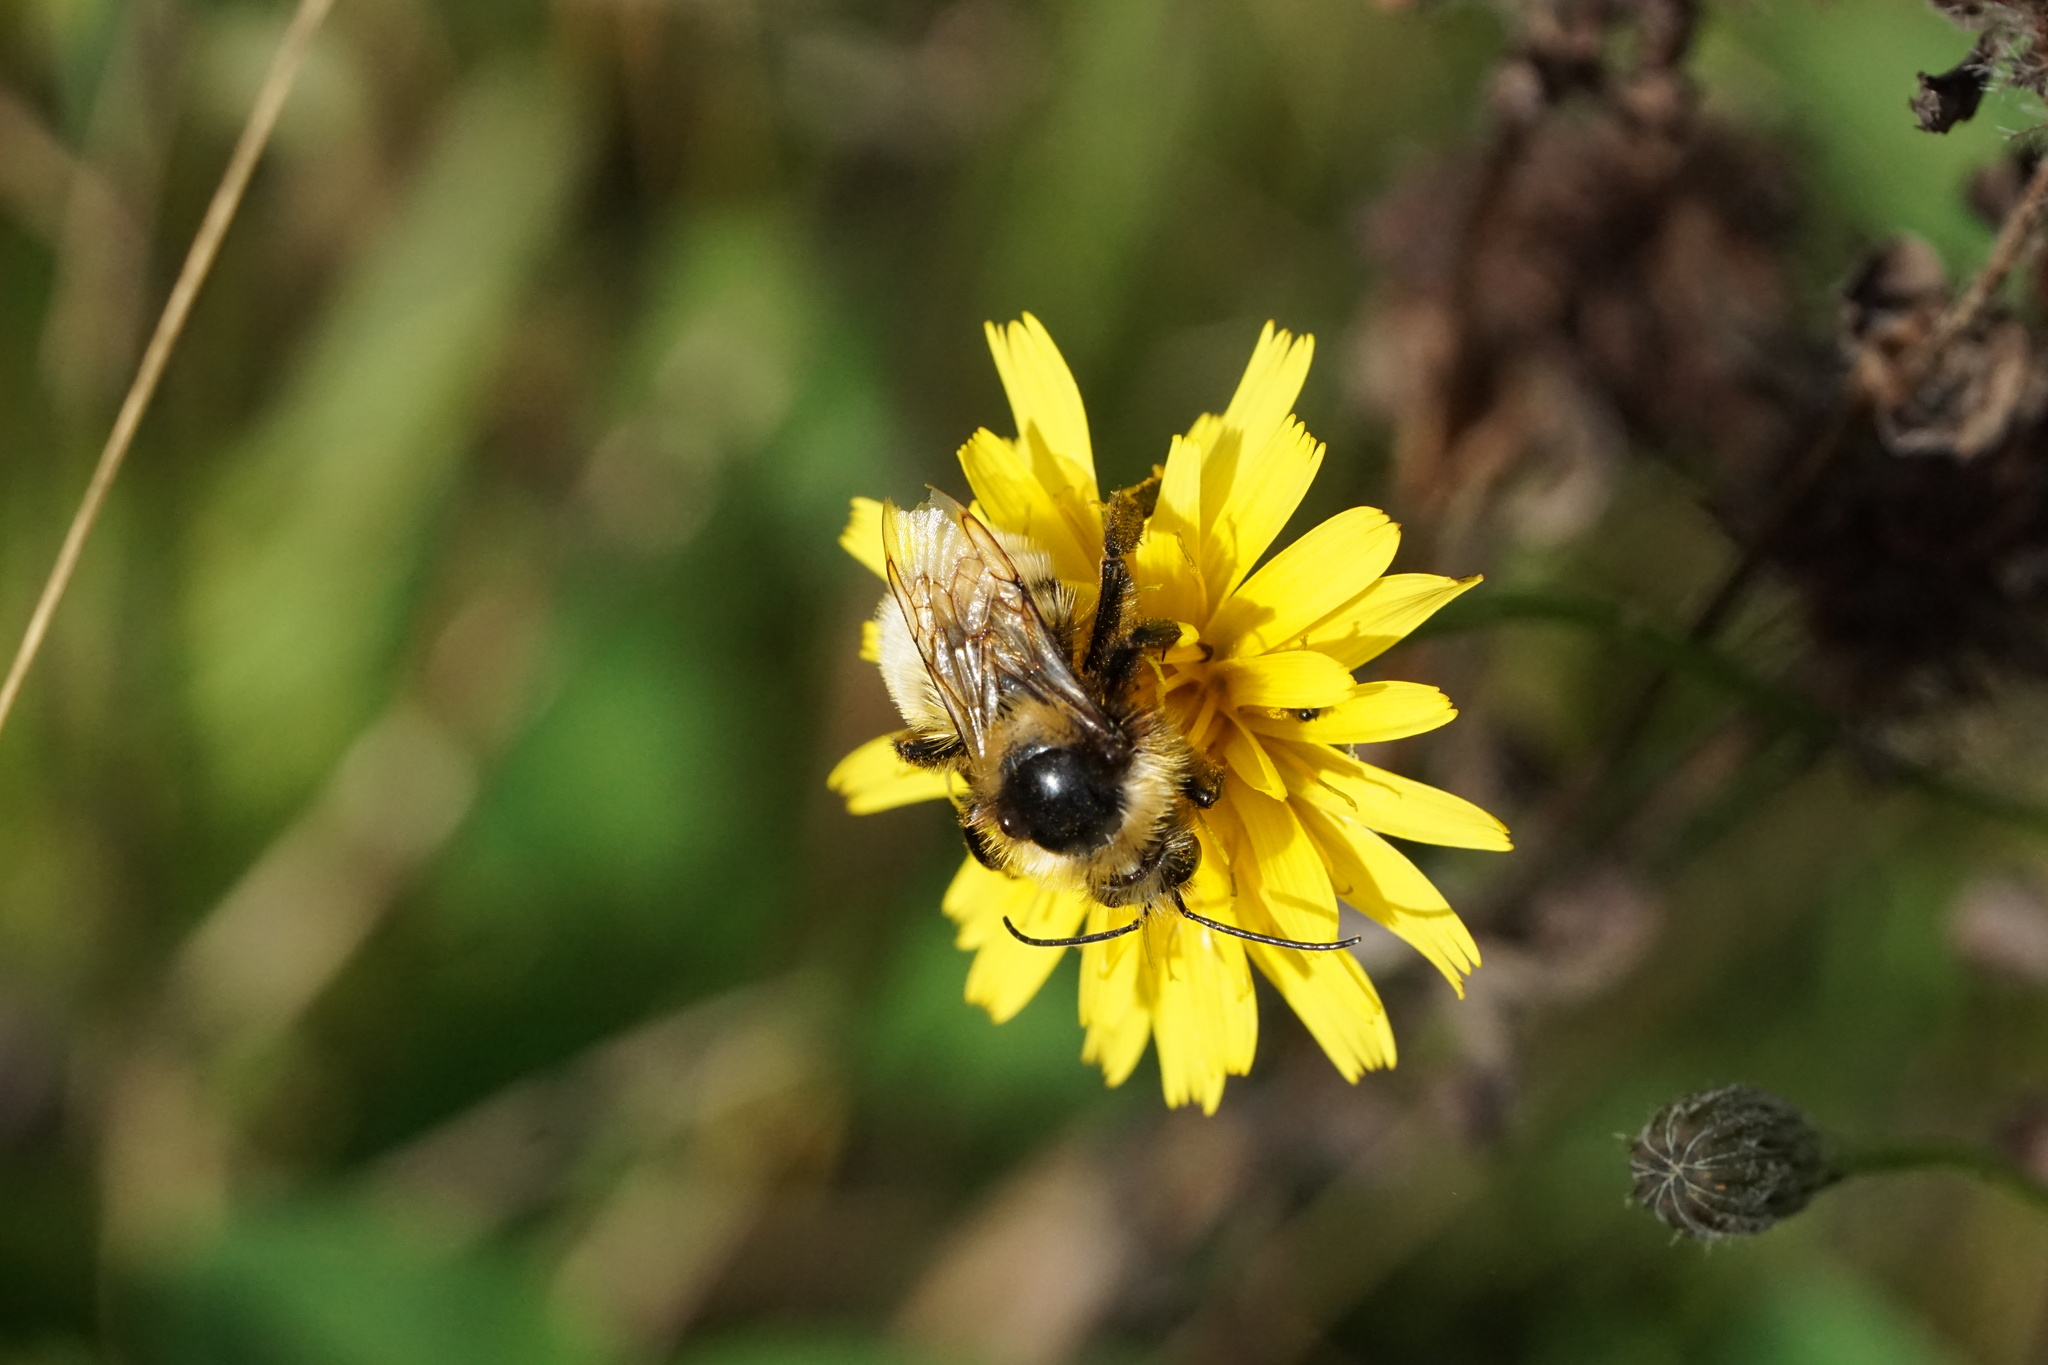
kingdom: Animalia
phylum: Arthropoda
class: Insecta
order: Hymenoptera
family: Apidae
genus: Bombus
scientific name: Bombus borealis
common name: Northern amber bumble bee
